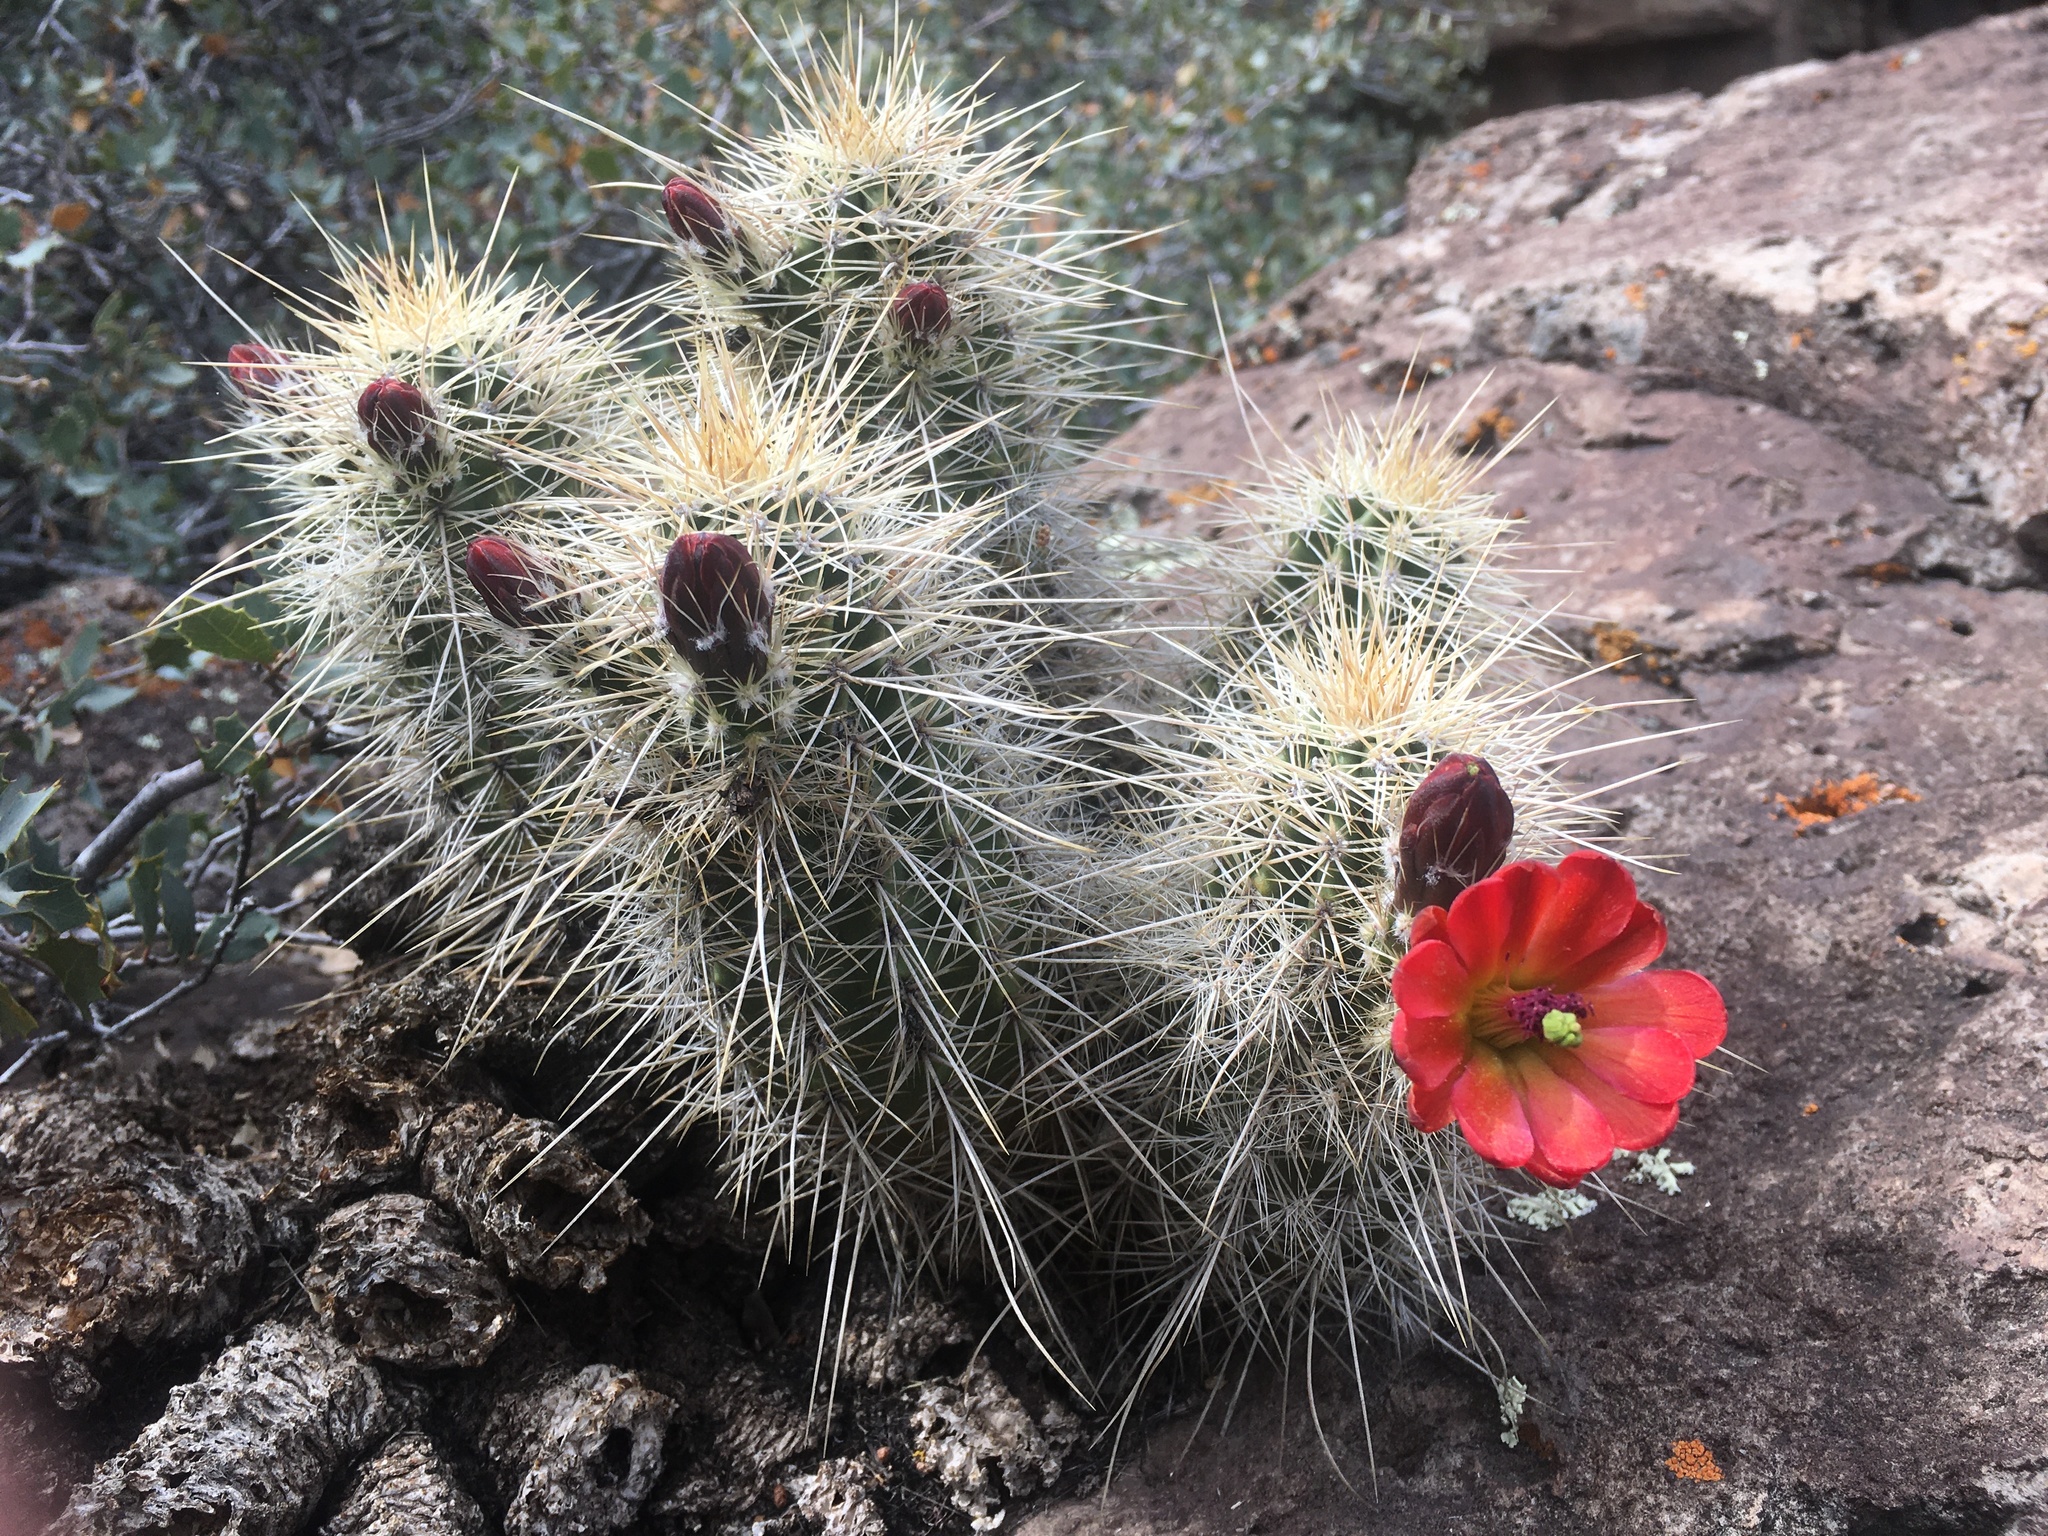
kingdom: Plantae
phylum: Tracheophyta
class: Magnoliopsida
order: Caryophyllales
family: Cactaceae
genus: Echinocereus
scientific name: Echinocereus bakeri
